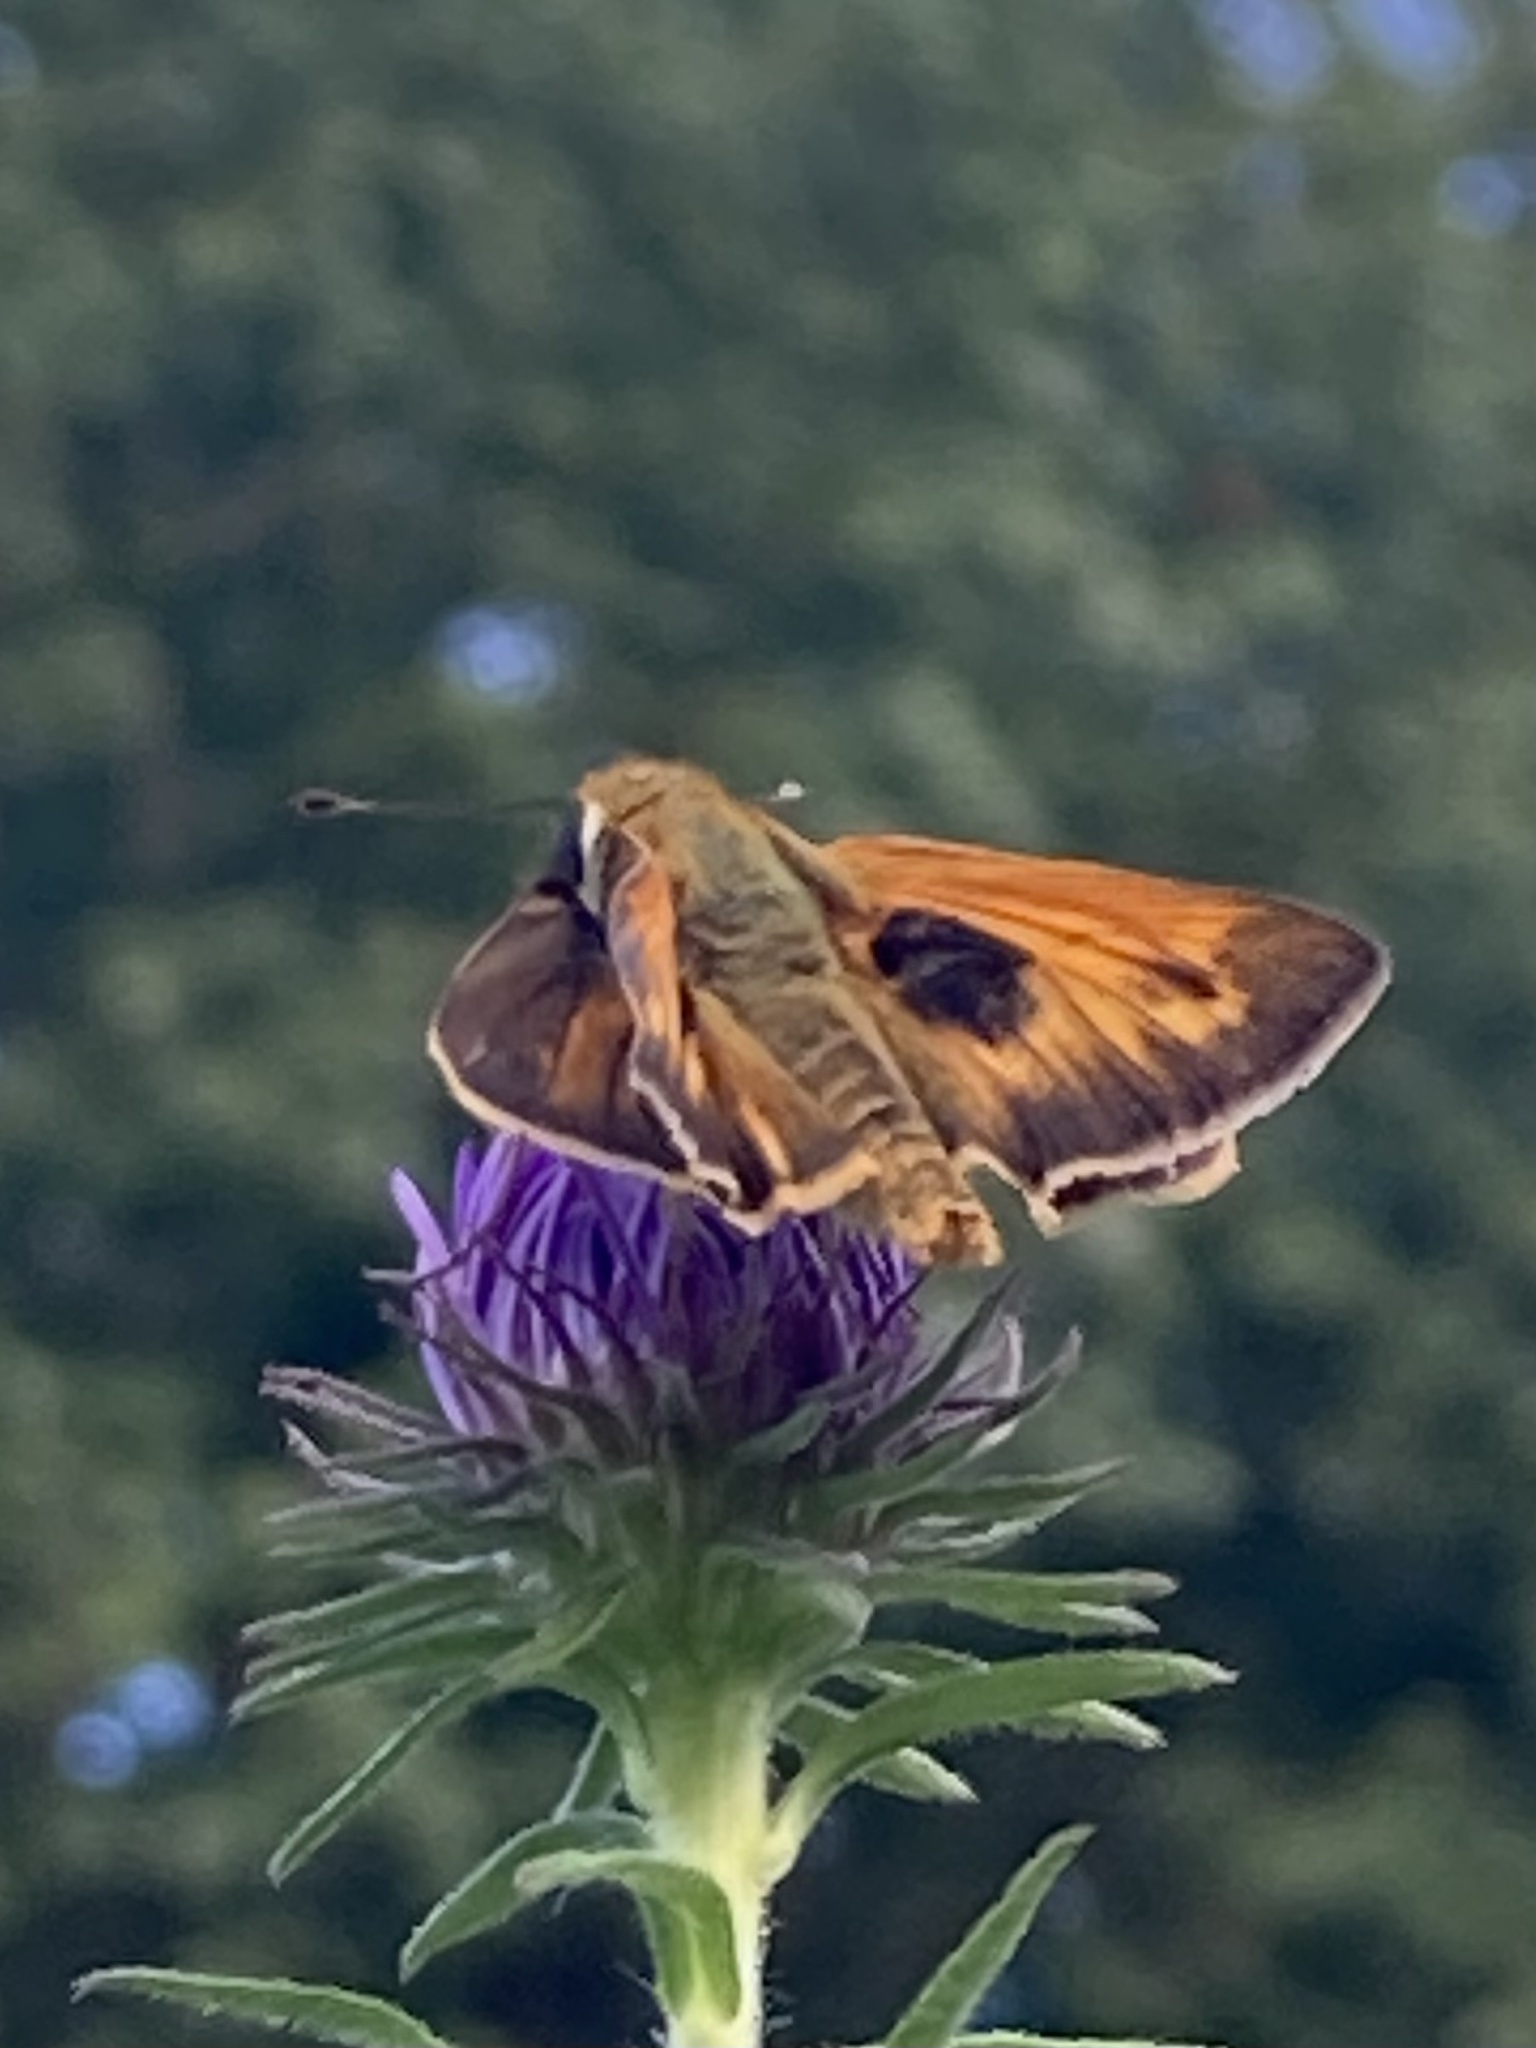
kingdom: Animalia
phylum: Arthropoda
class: Insecta
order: Lepidoptera
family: Hesperiidae
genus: Atalopedes
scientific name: Atalopedes
